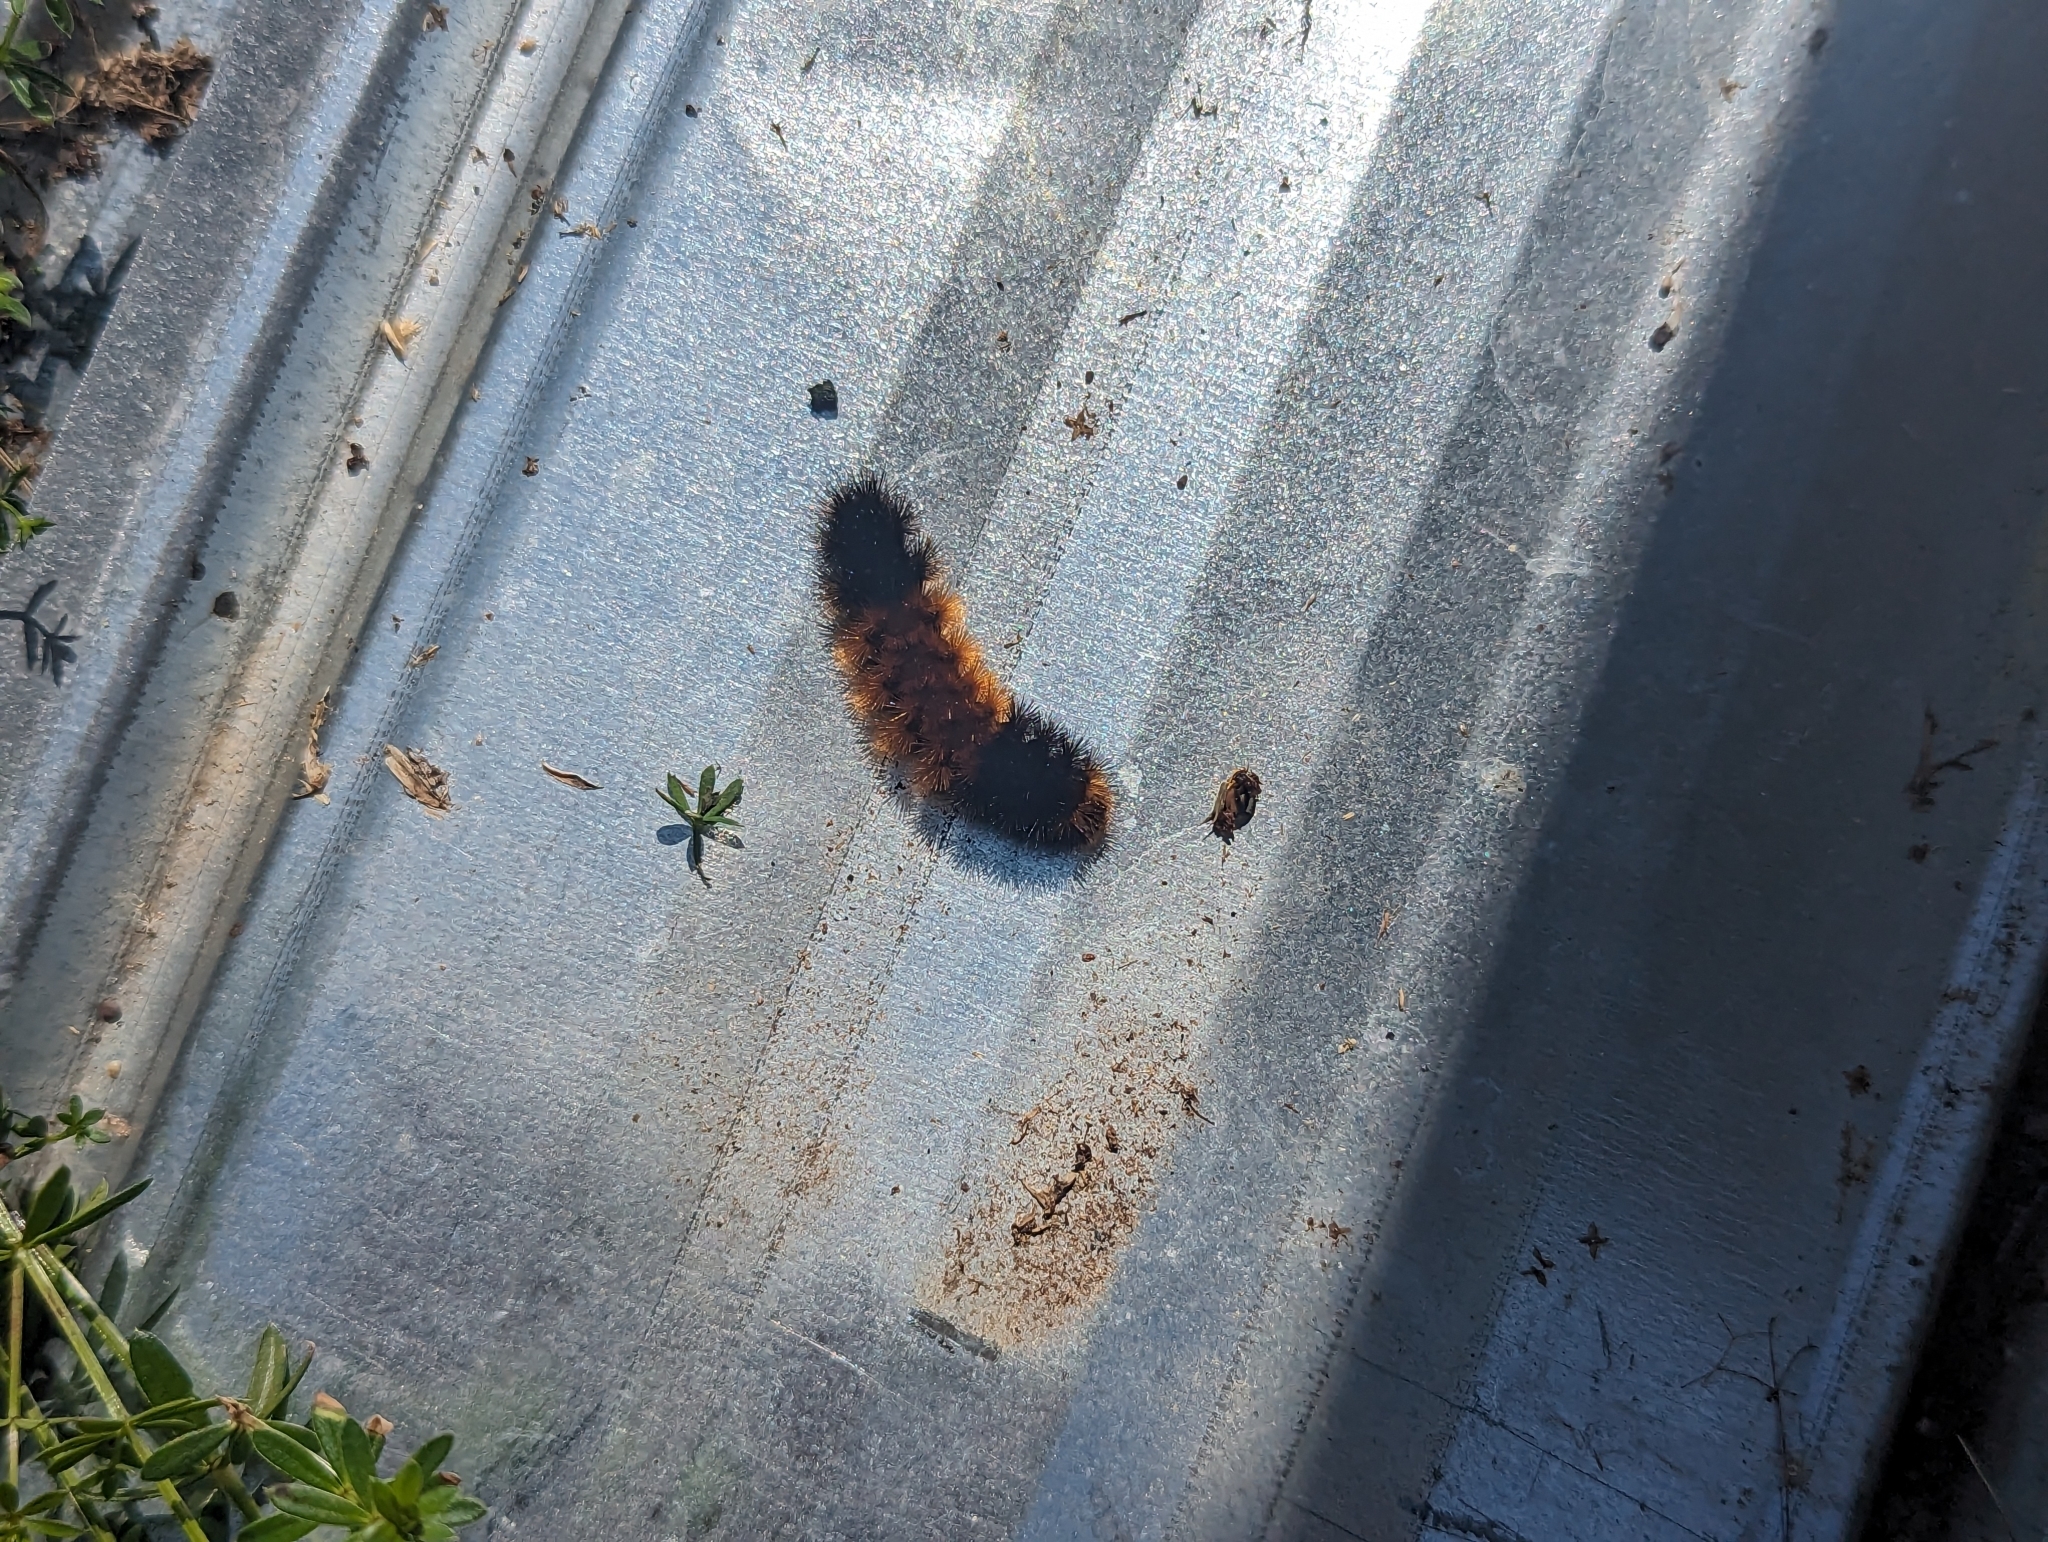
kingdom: Animalia
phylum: Arthropoda
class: Insecta
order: Lepidoptera
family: Erebidae
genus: Pyrrharctia
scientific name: Pyrrharctia isabella
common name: Isabella tiger moth
